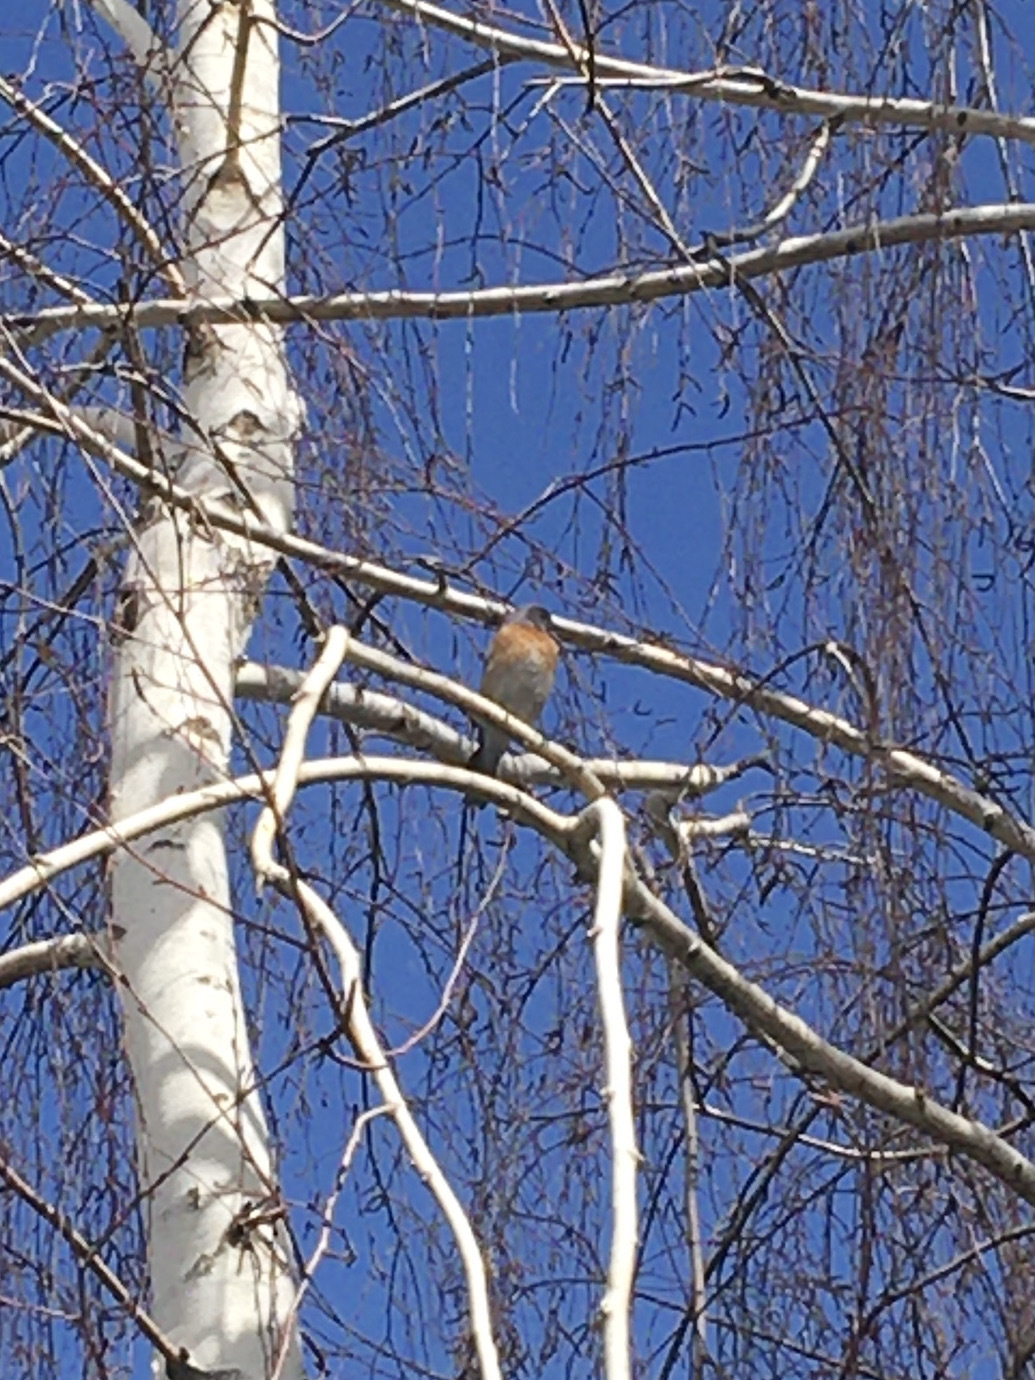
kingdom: Animalia
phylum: Chordata
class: Aves
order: Passeriformes
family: Turdidae
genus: Sialia
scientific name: Sialia mexicana
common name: Western bluebird
